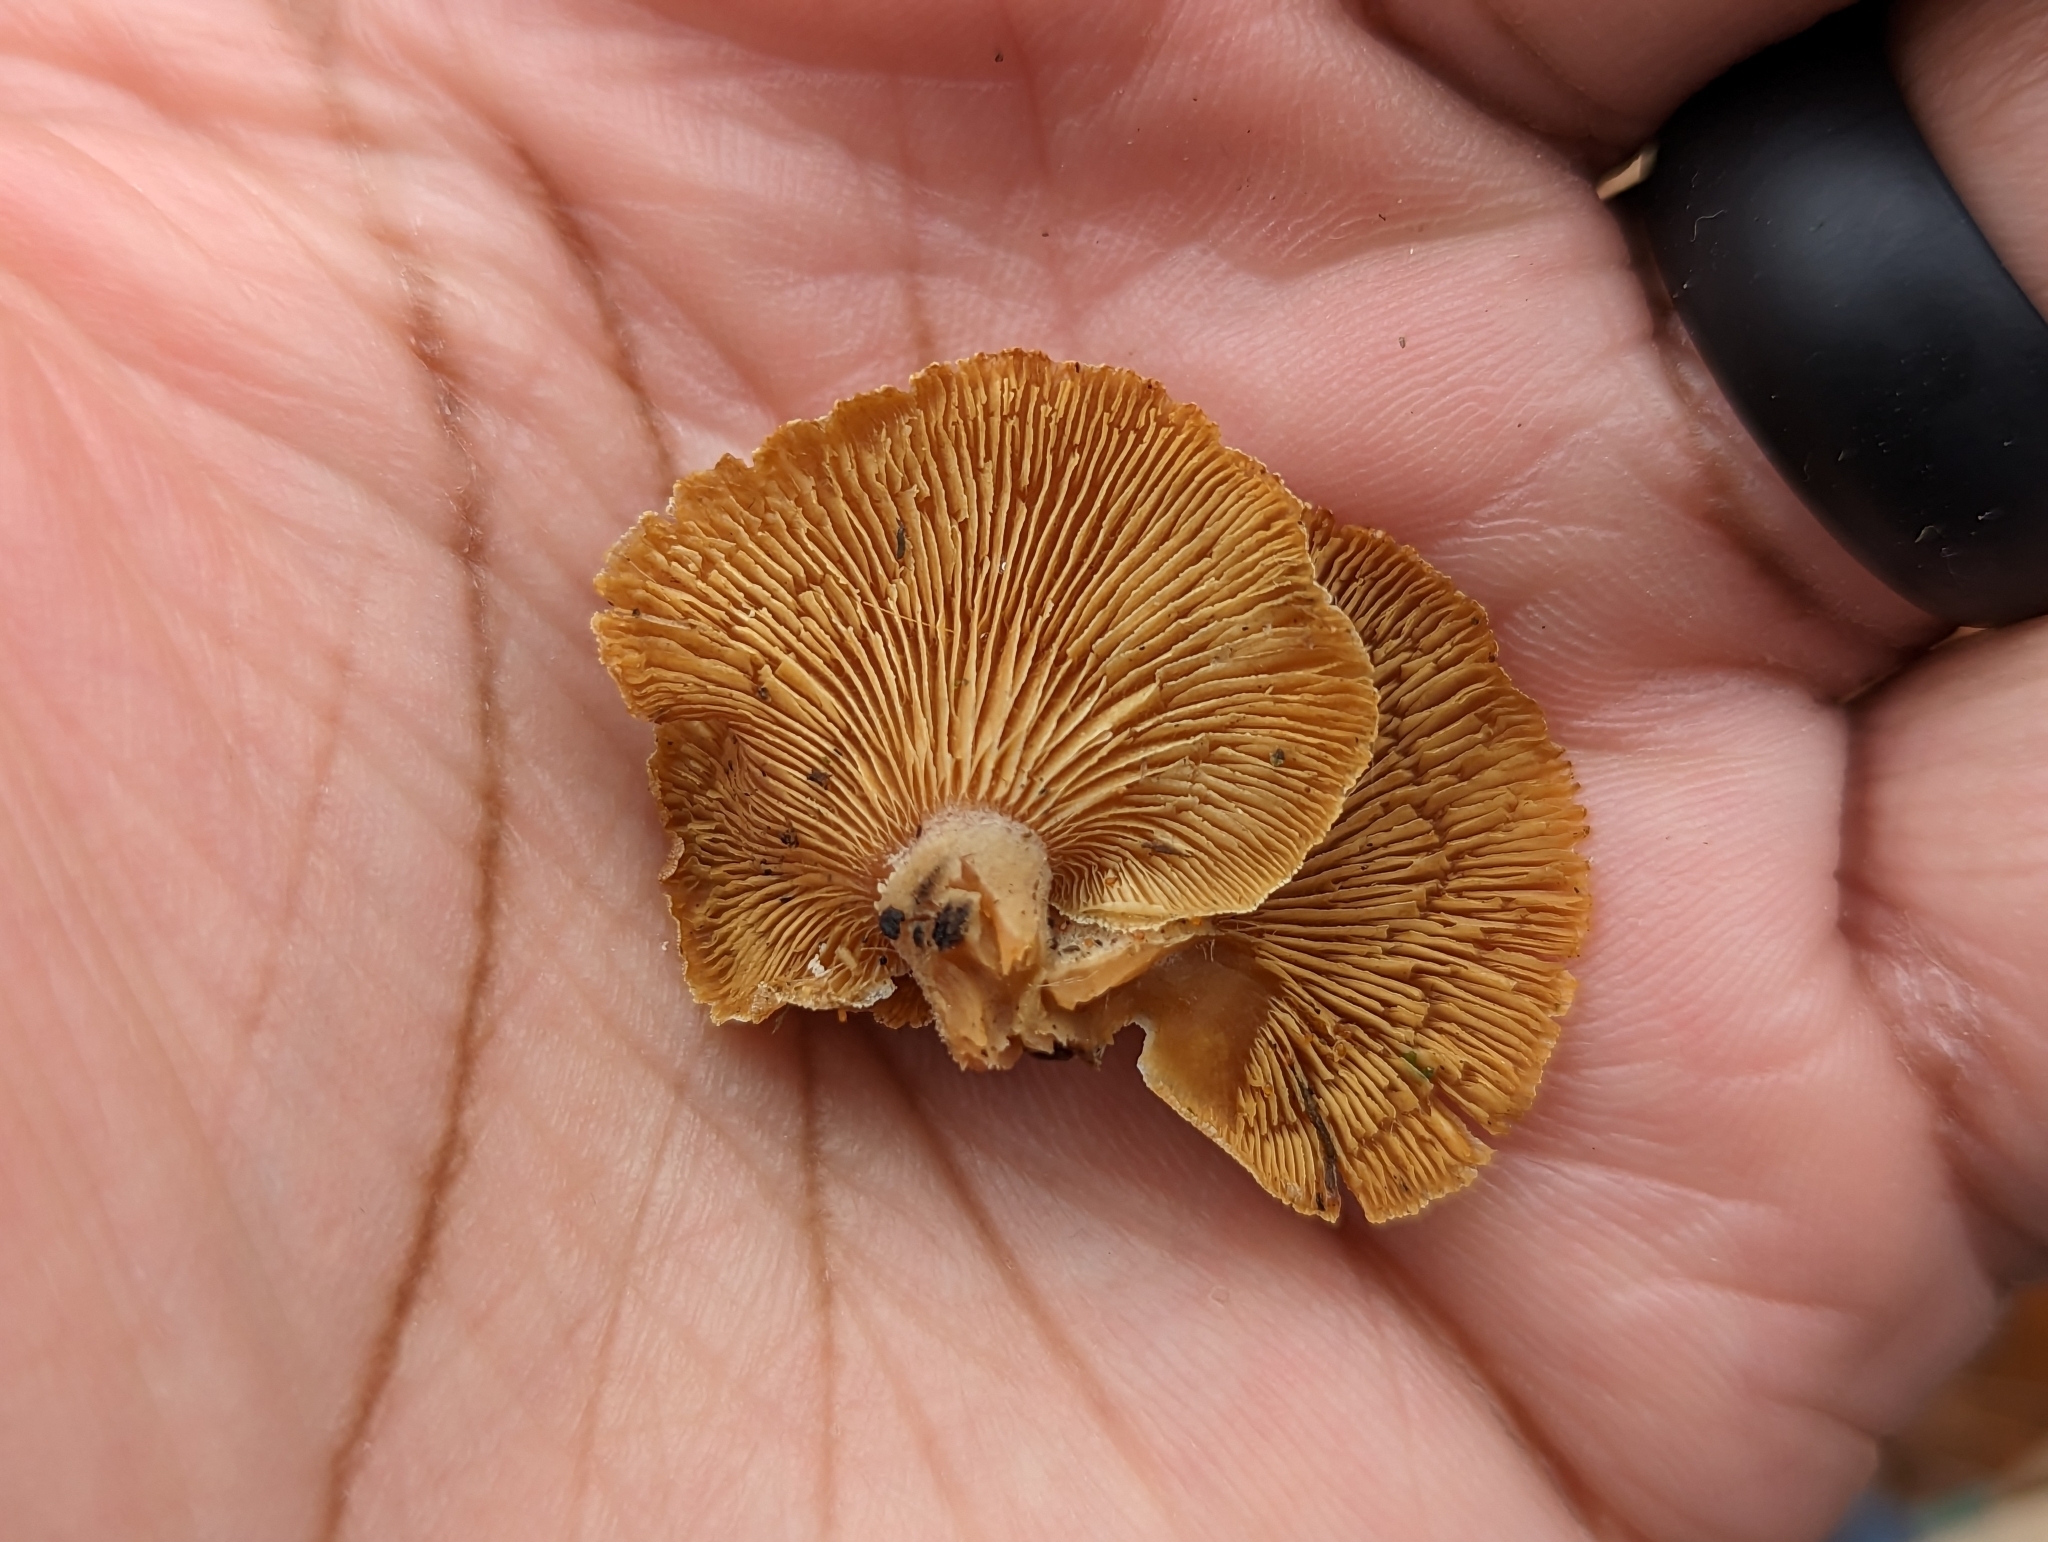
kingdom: Fungi
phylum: Basidiomycota
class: Agaricomycetes
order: Agaricales
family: Mycenaceae
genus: Panellus
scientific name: Panellus stipticus
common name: Bitter oysterling
